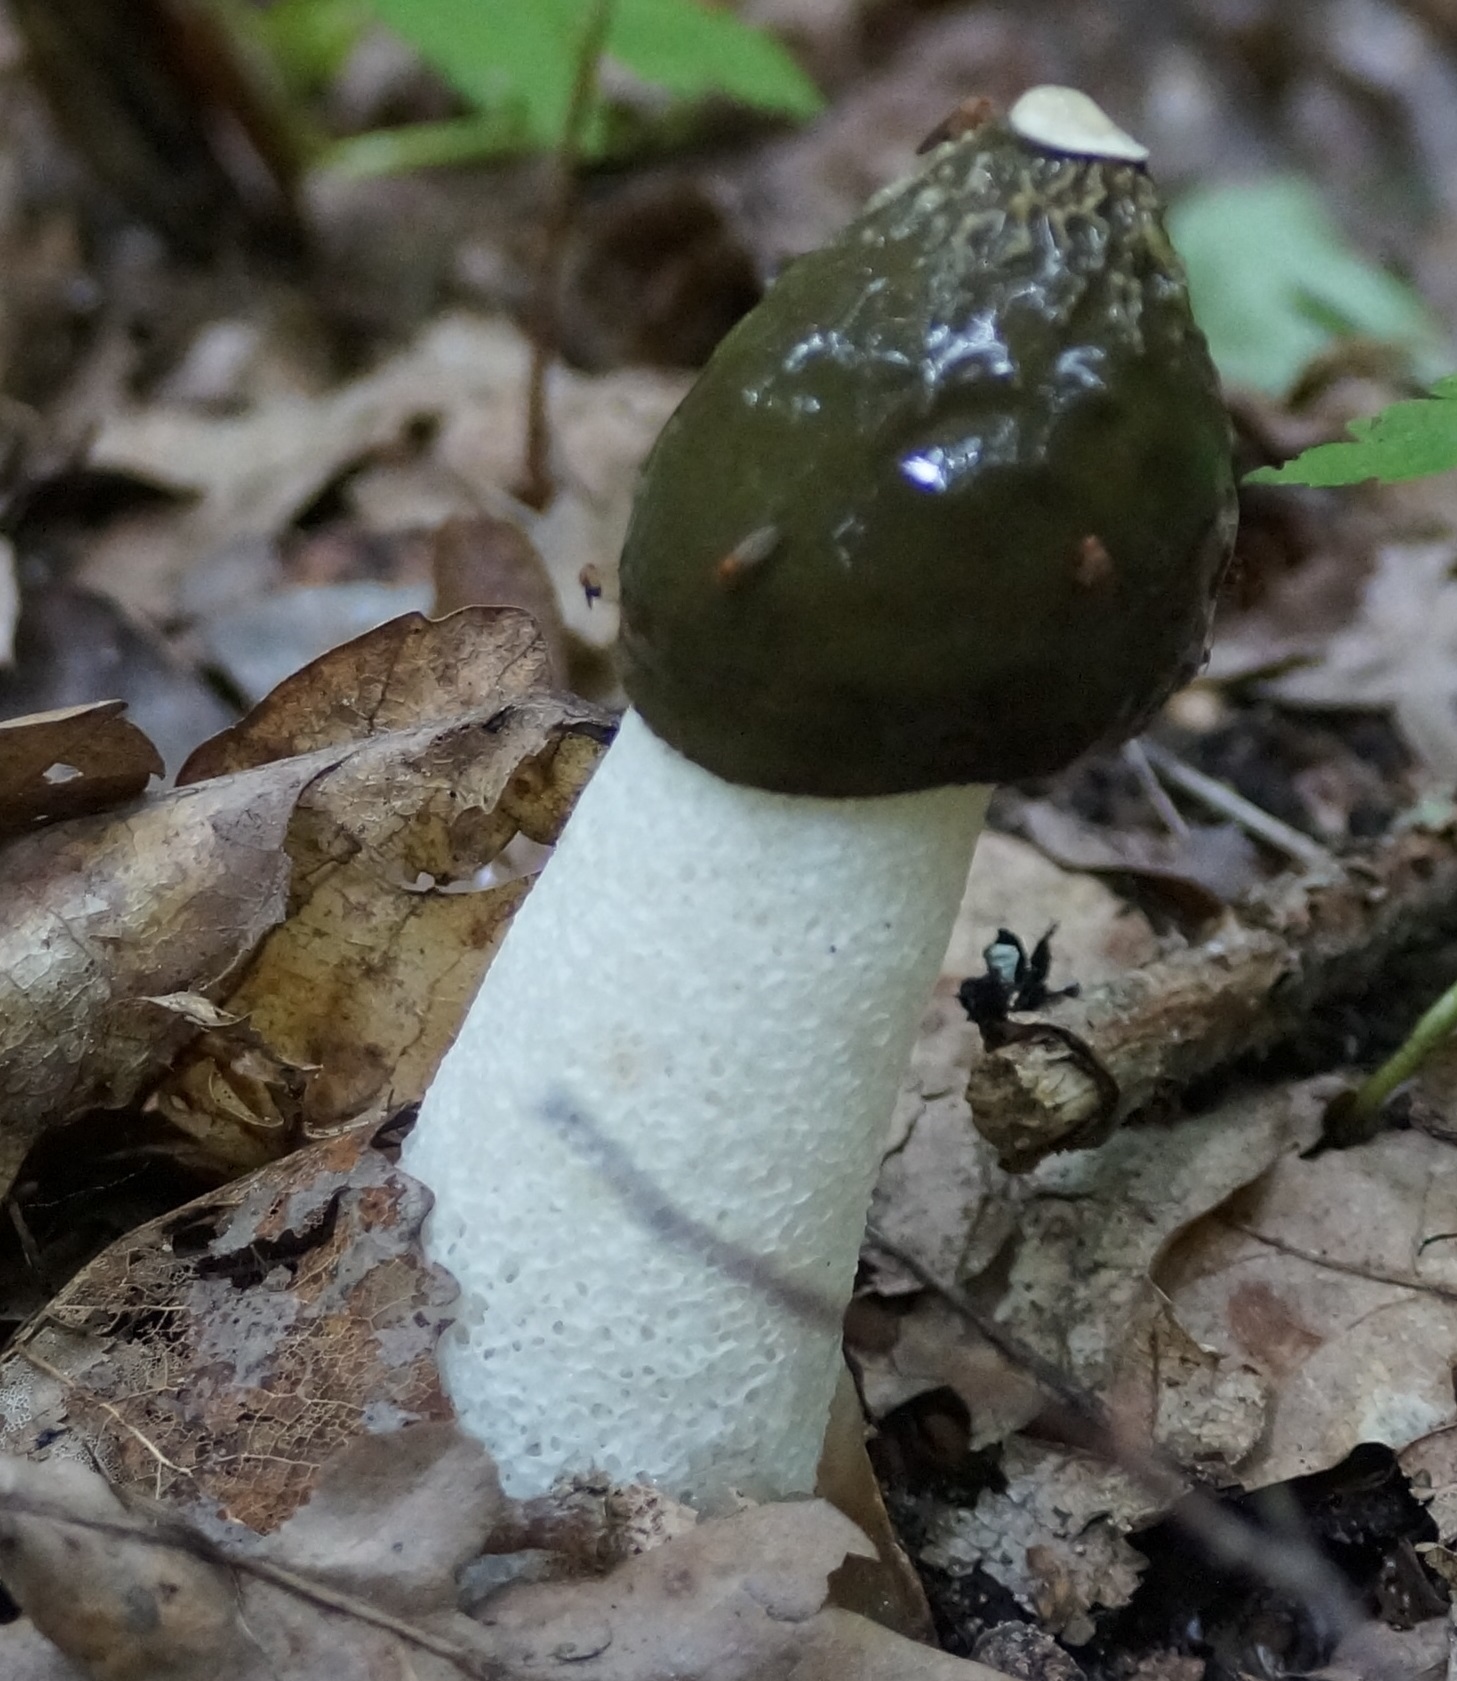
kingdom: Fungi
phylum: Basidiomycota
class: Agaricomycetes
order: Phallales
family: Phallaceae
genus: Phallus
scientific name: Phallus impudicus
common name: Common stinkhorn
